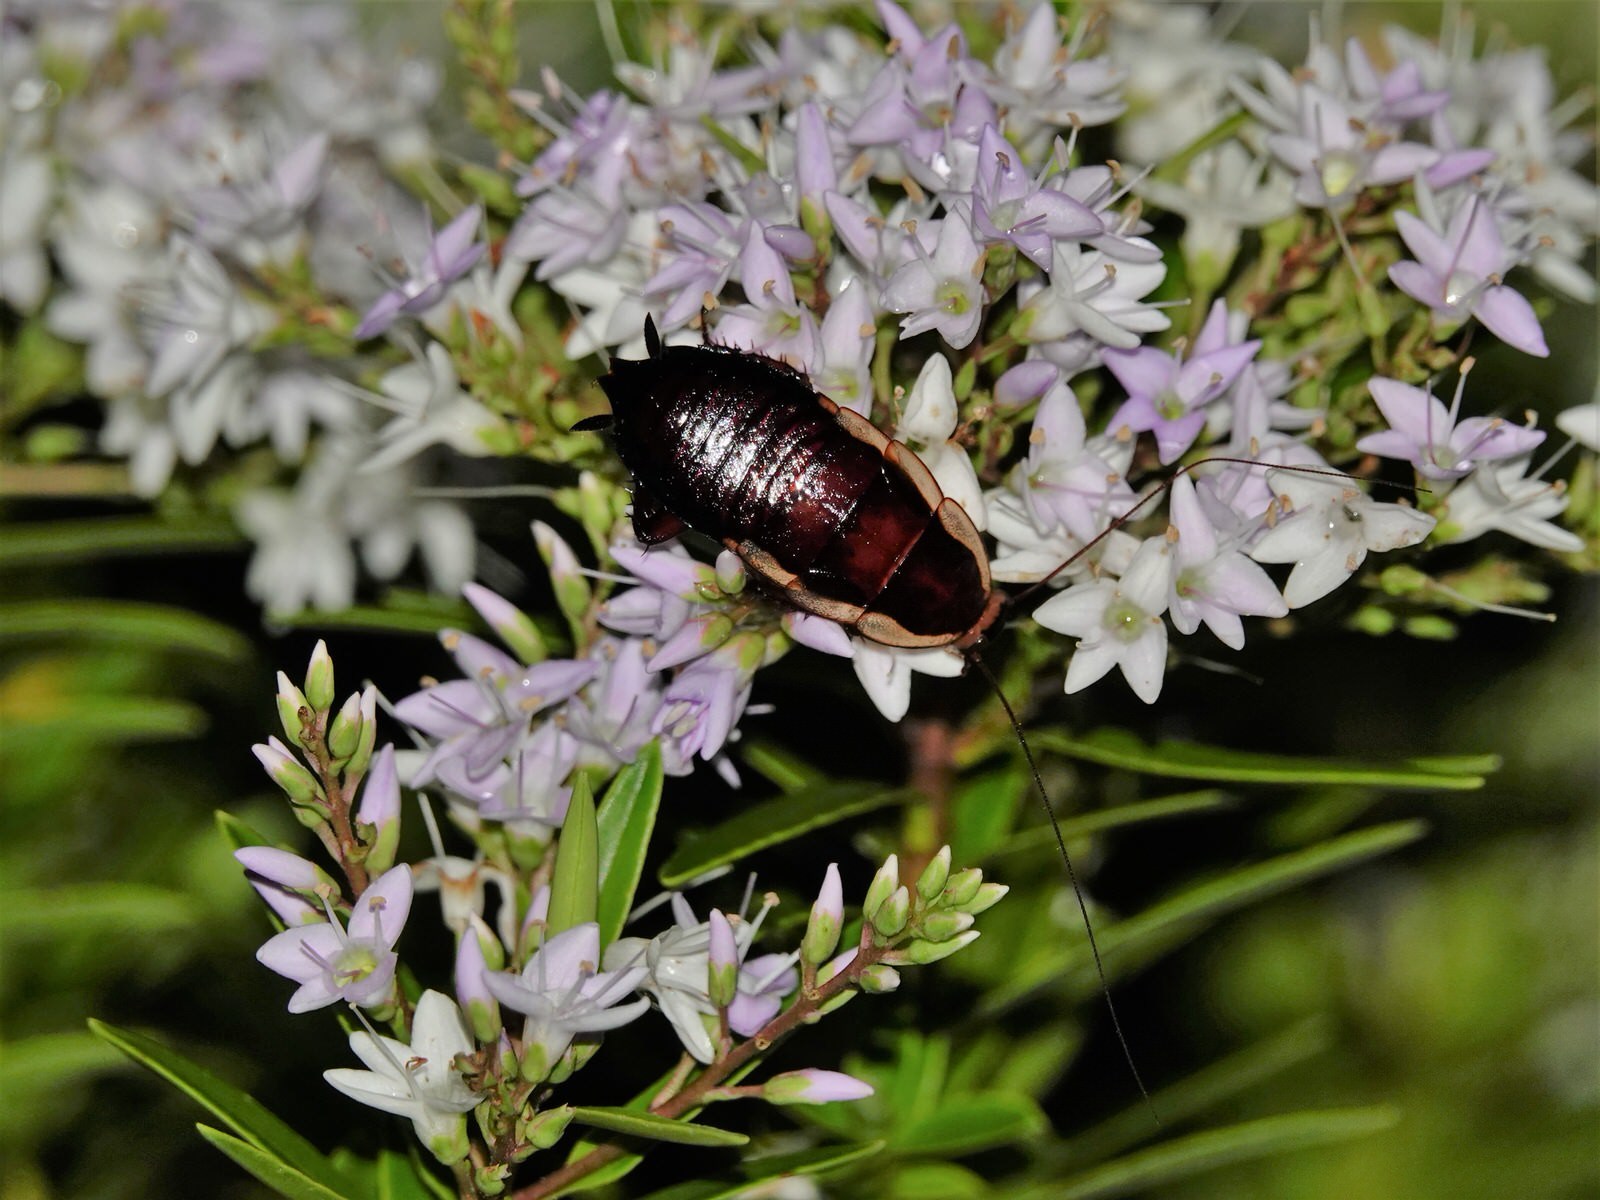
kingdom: Animalia
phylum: Arthropoda
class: Insecta
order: Blattodea
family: Blattidae
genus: Drymaplaneta
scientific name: Drymaplaneta semivitta
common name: Gisborne cockroach
